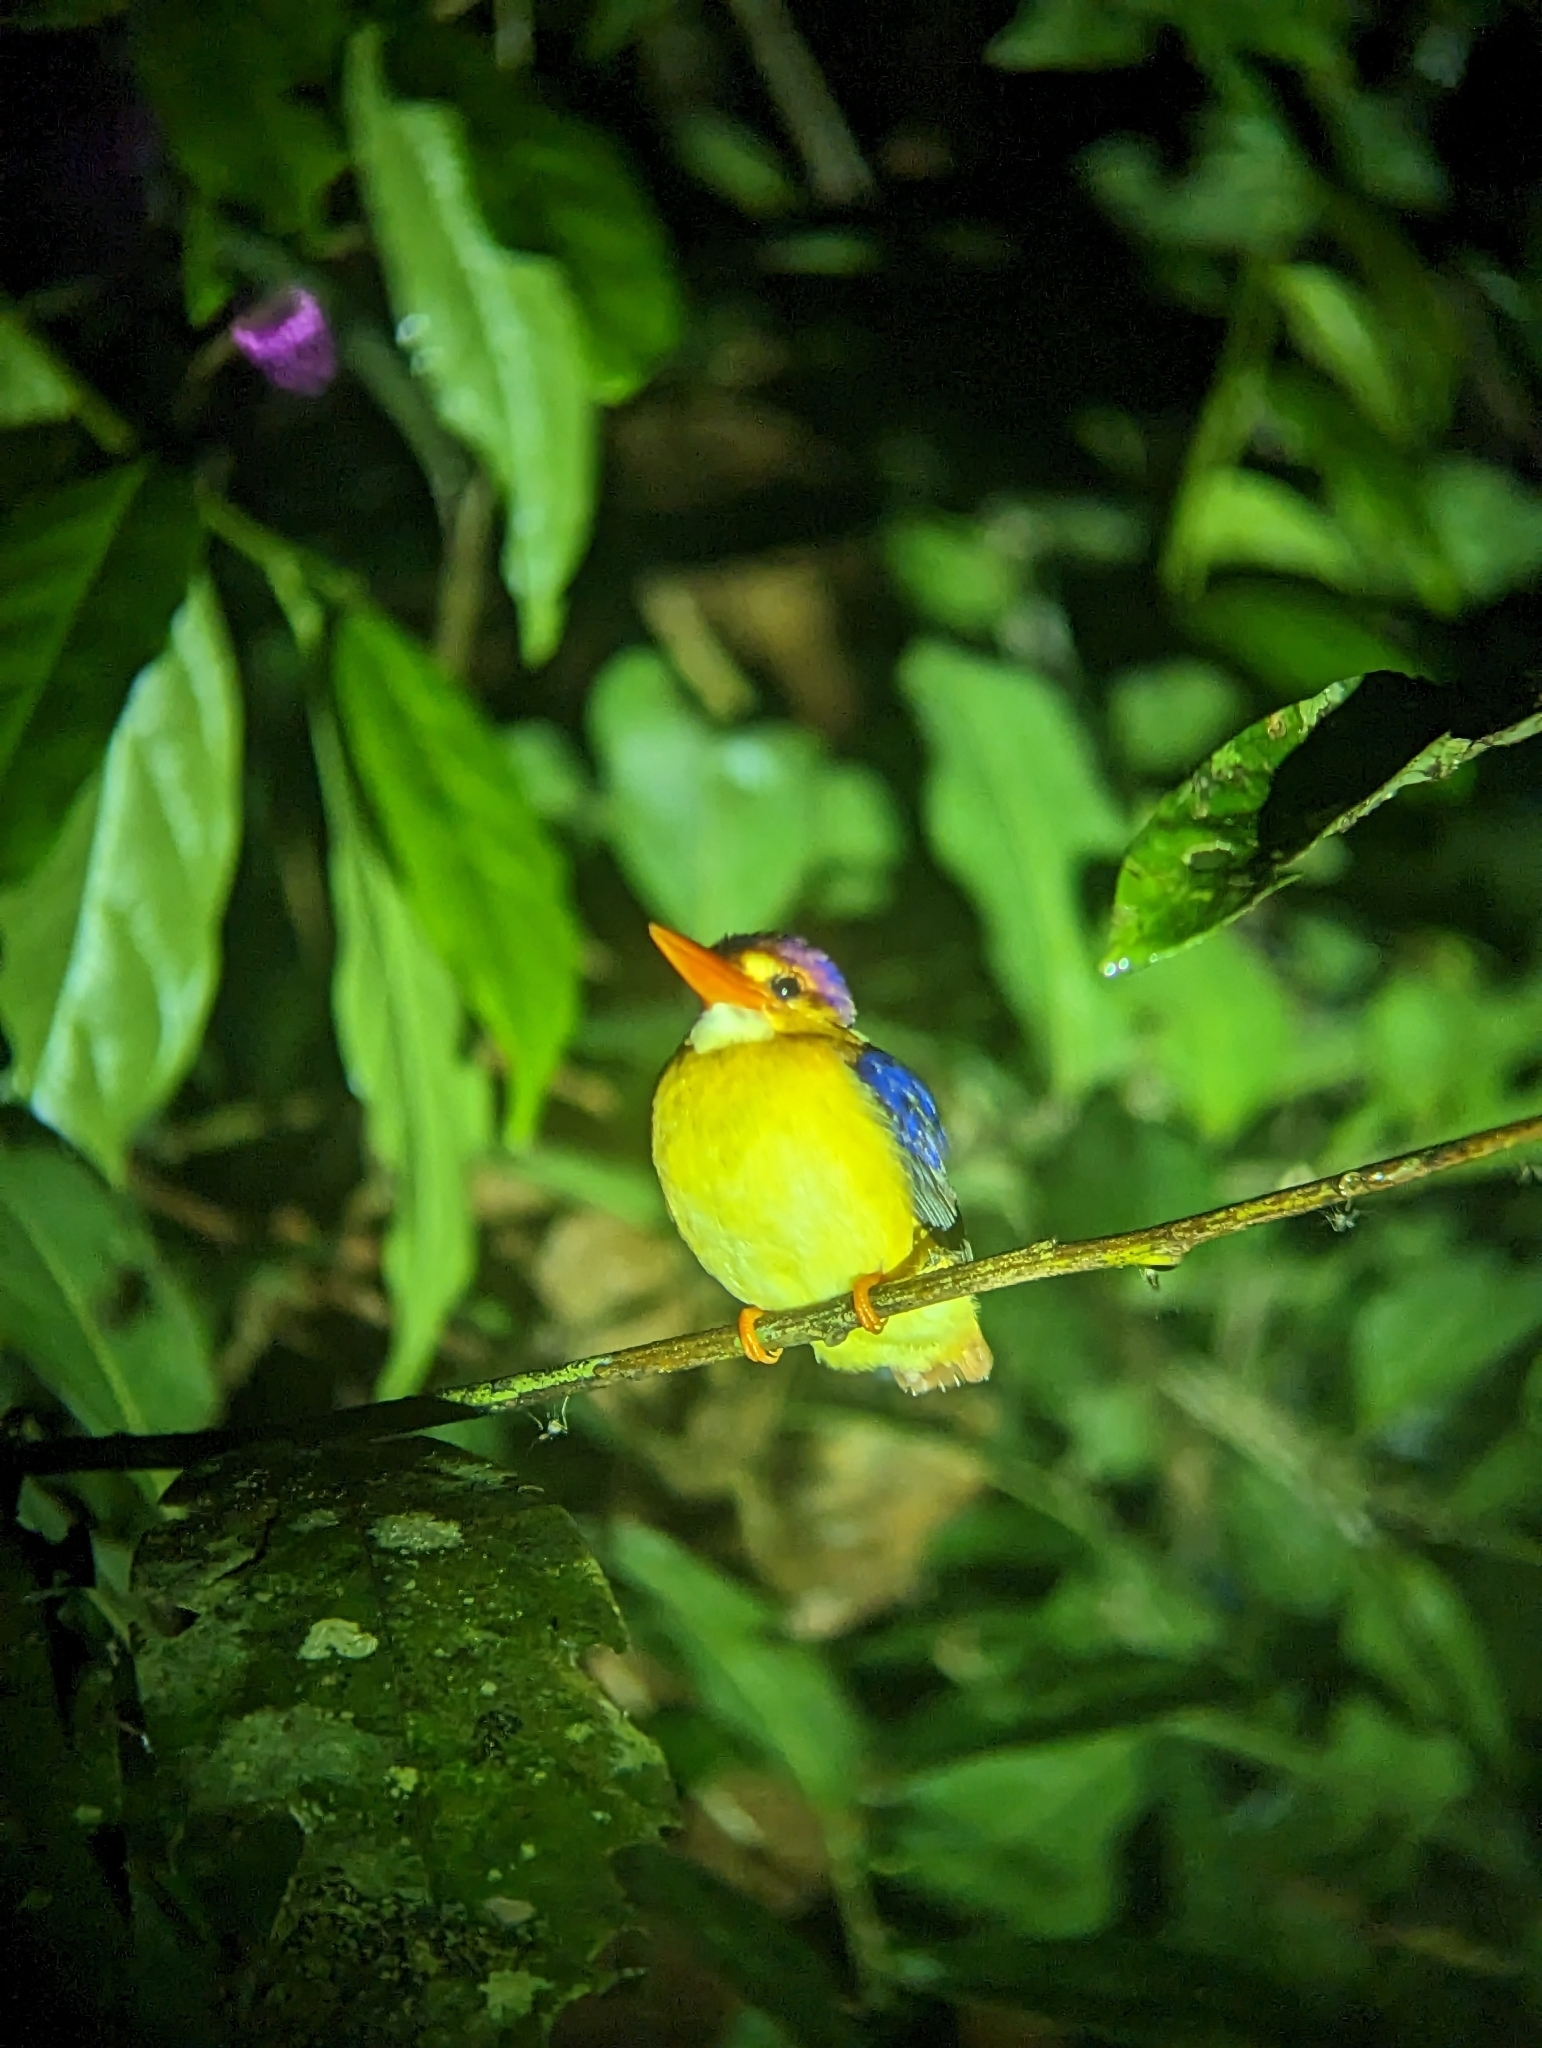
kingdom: Animalia
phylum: Chordata
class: Aves
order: Coraciiformes
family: Alcedinidae
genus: Ceyx
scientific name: Ceyx erithaca
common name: Oriental dwarf kingfisher
